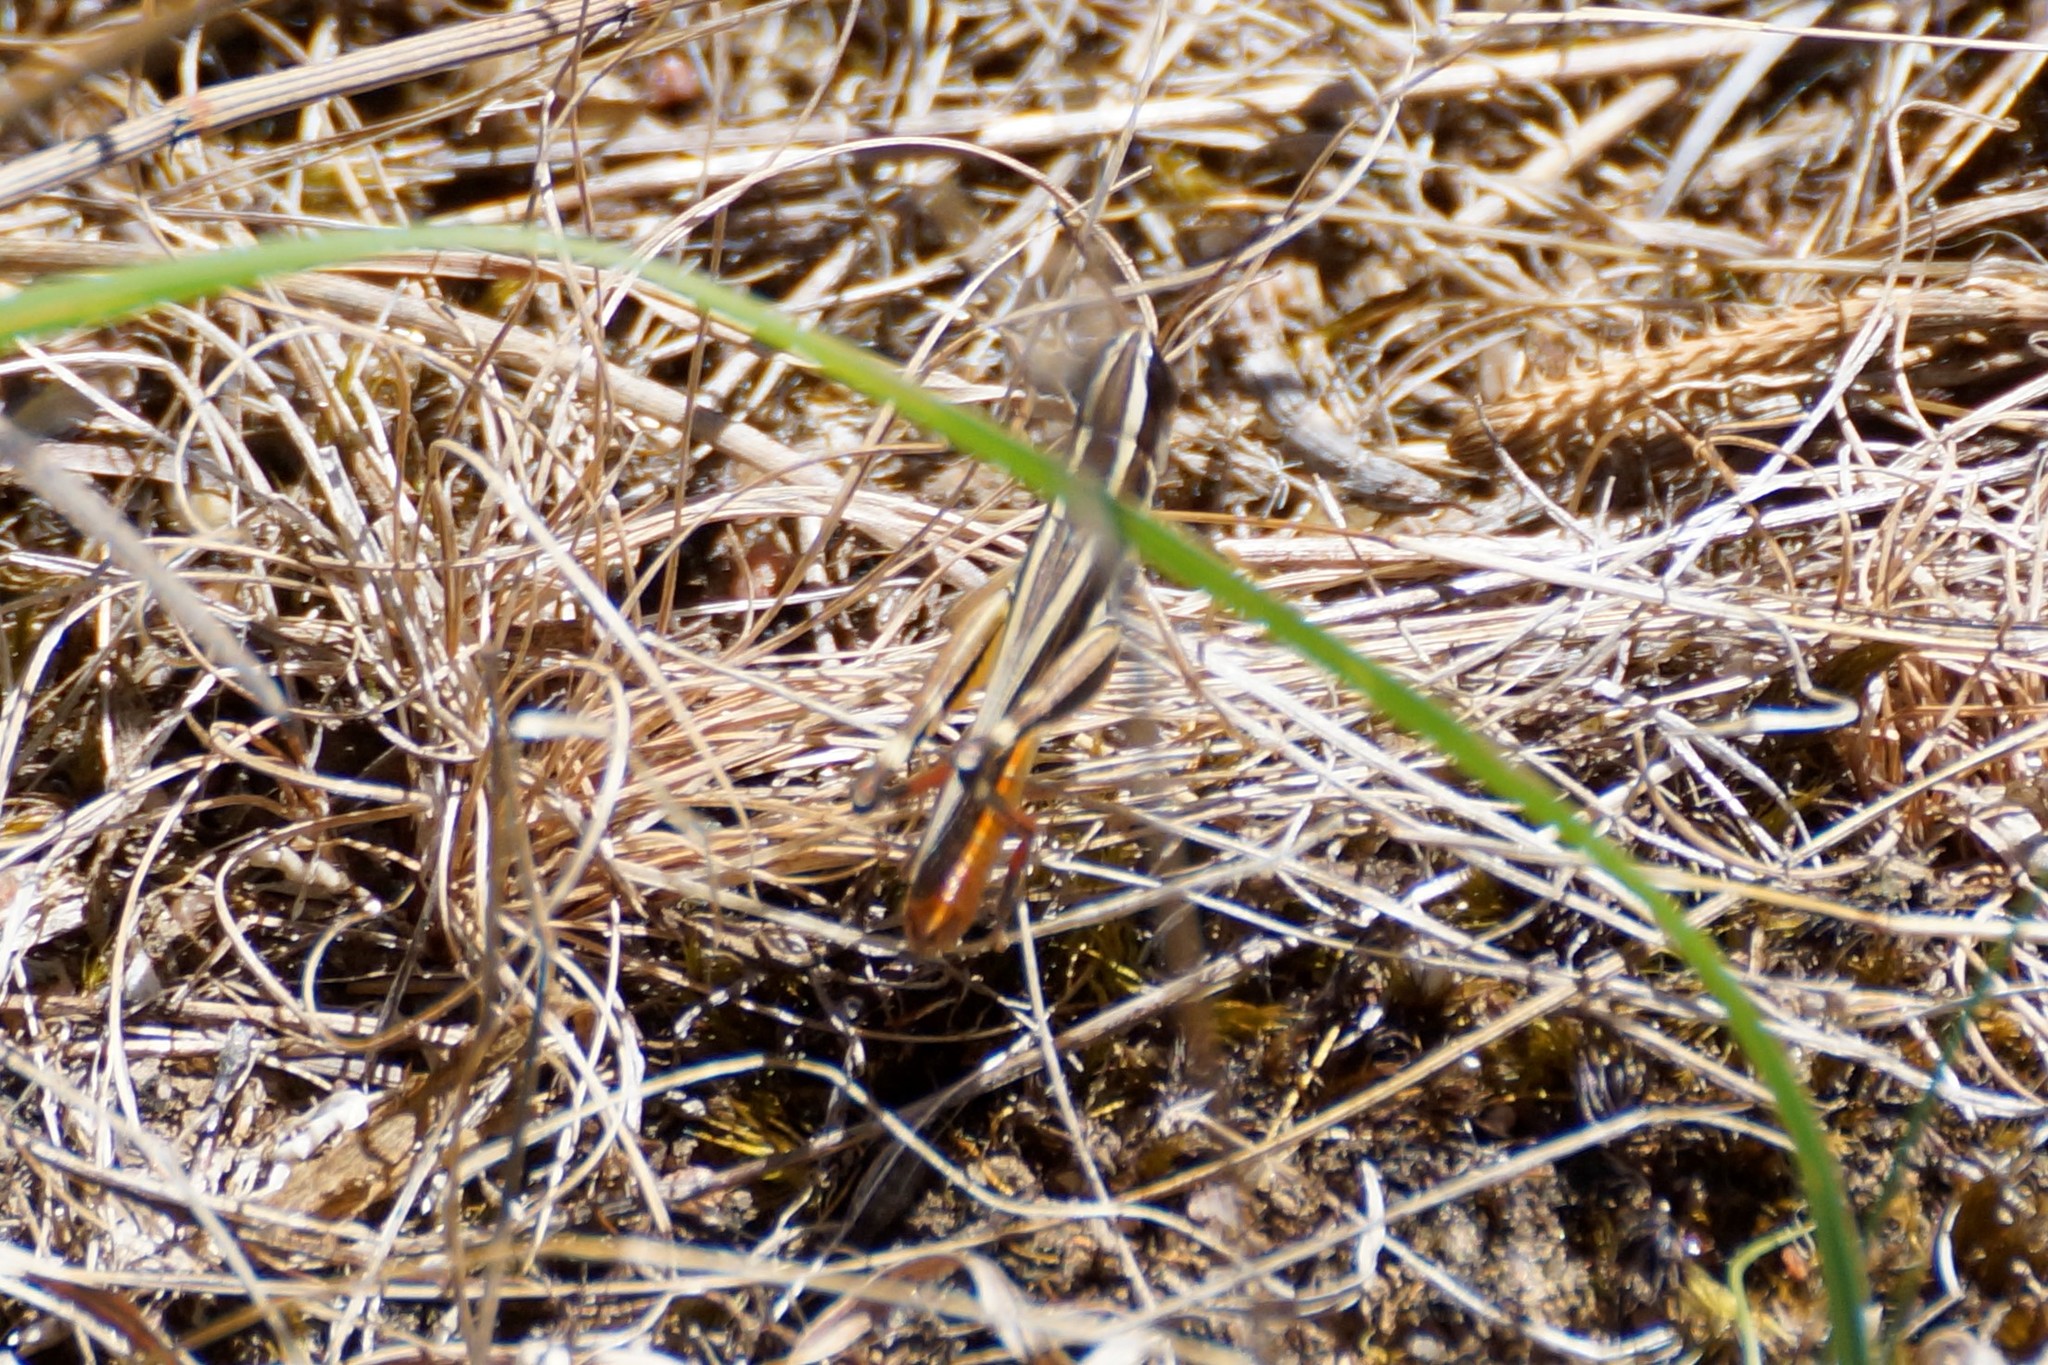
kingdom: Animalia
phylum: Arthropoda
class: Insecta
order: Orthoptera
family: Acrididae
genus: Macrotona
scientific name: Macrotona australis
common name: Common macrotona
